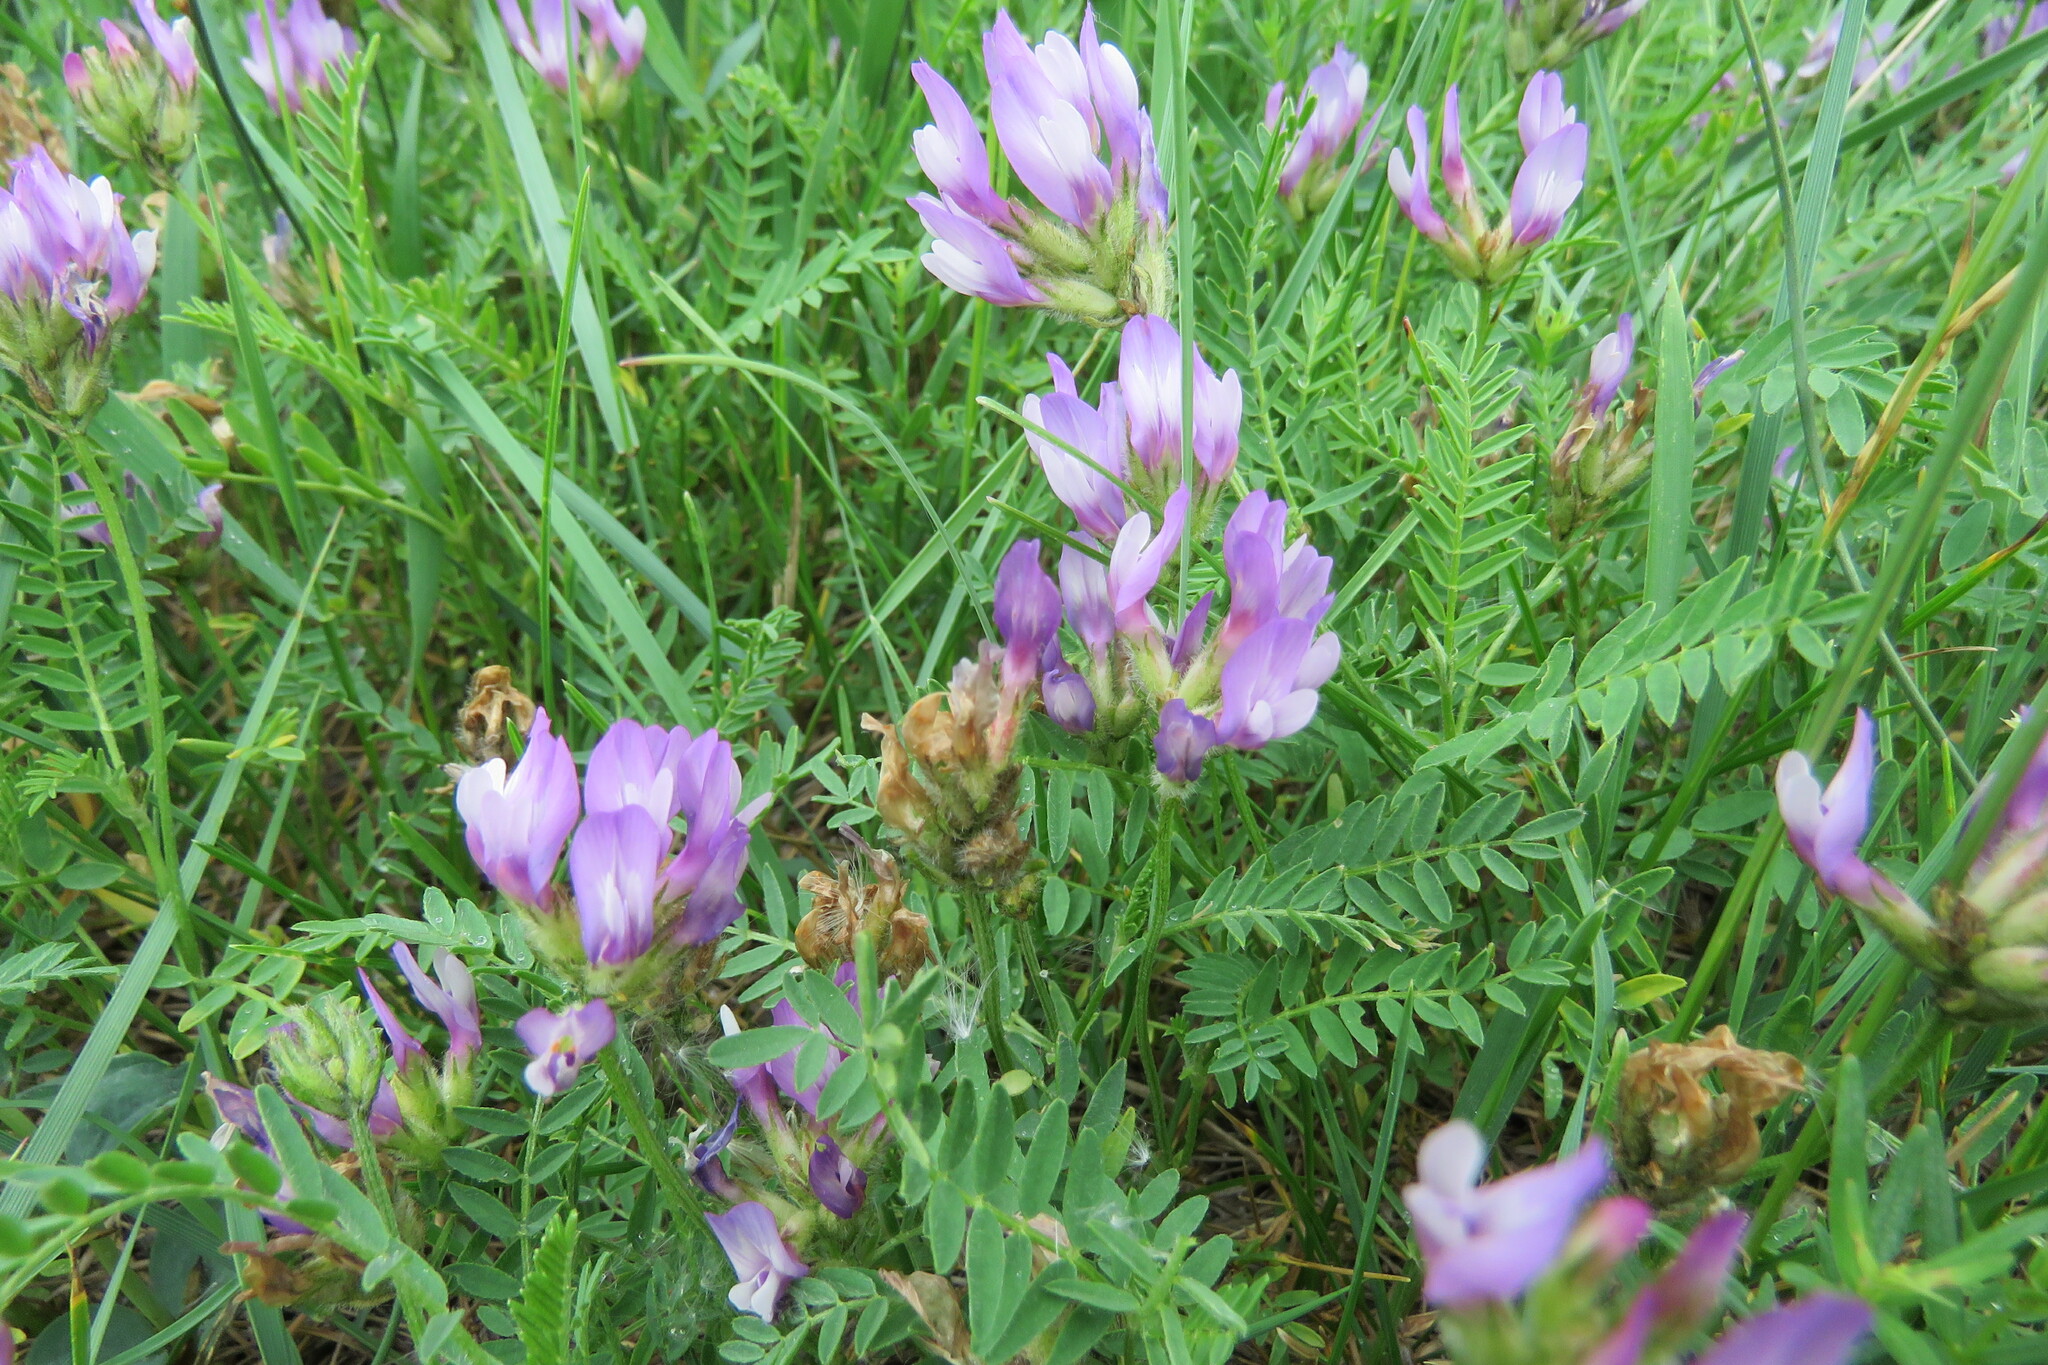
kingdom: Plantae
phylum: Tracheophyta
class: Magnoliopsida
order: Fabales
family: Fabaceae
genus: Astragalus
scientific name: Astragalus agrestis
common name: Field milk-vetch
